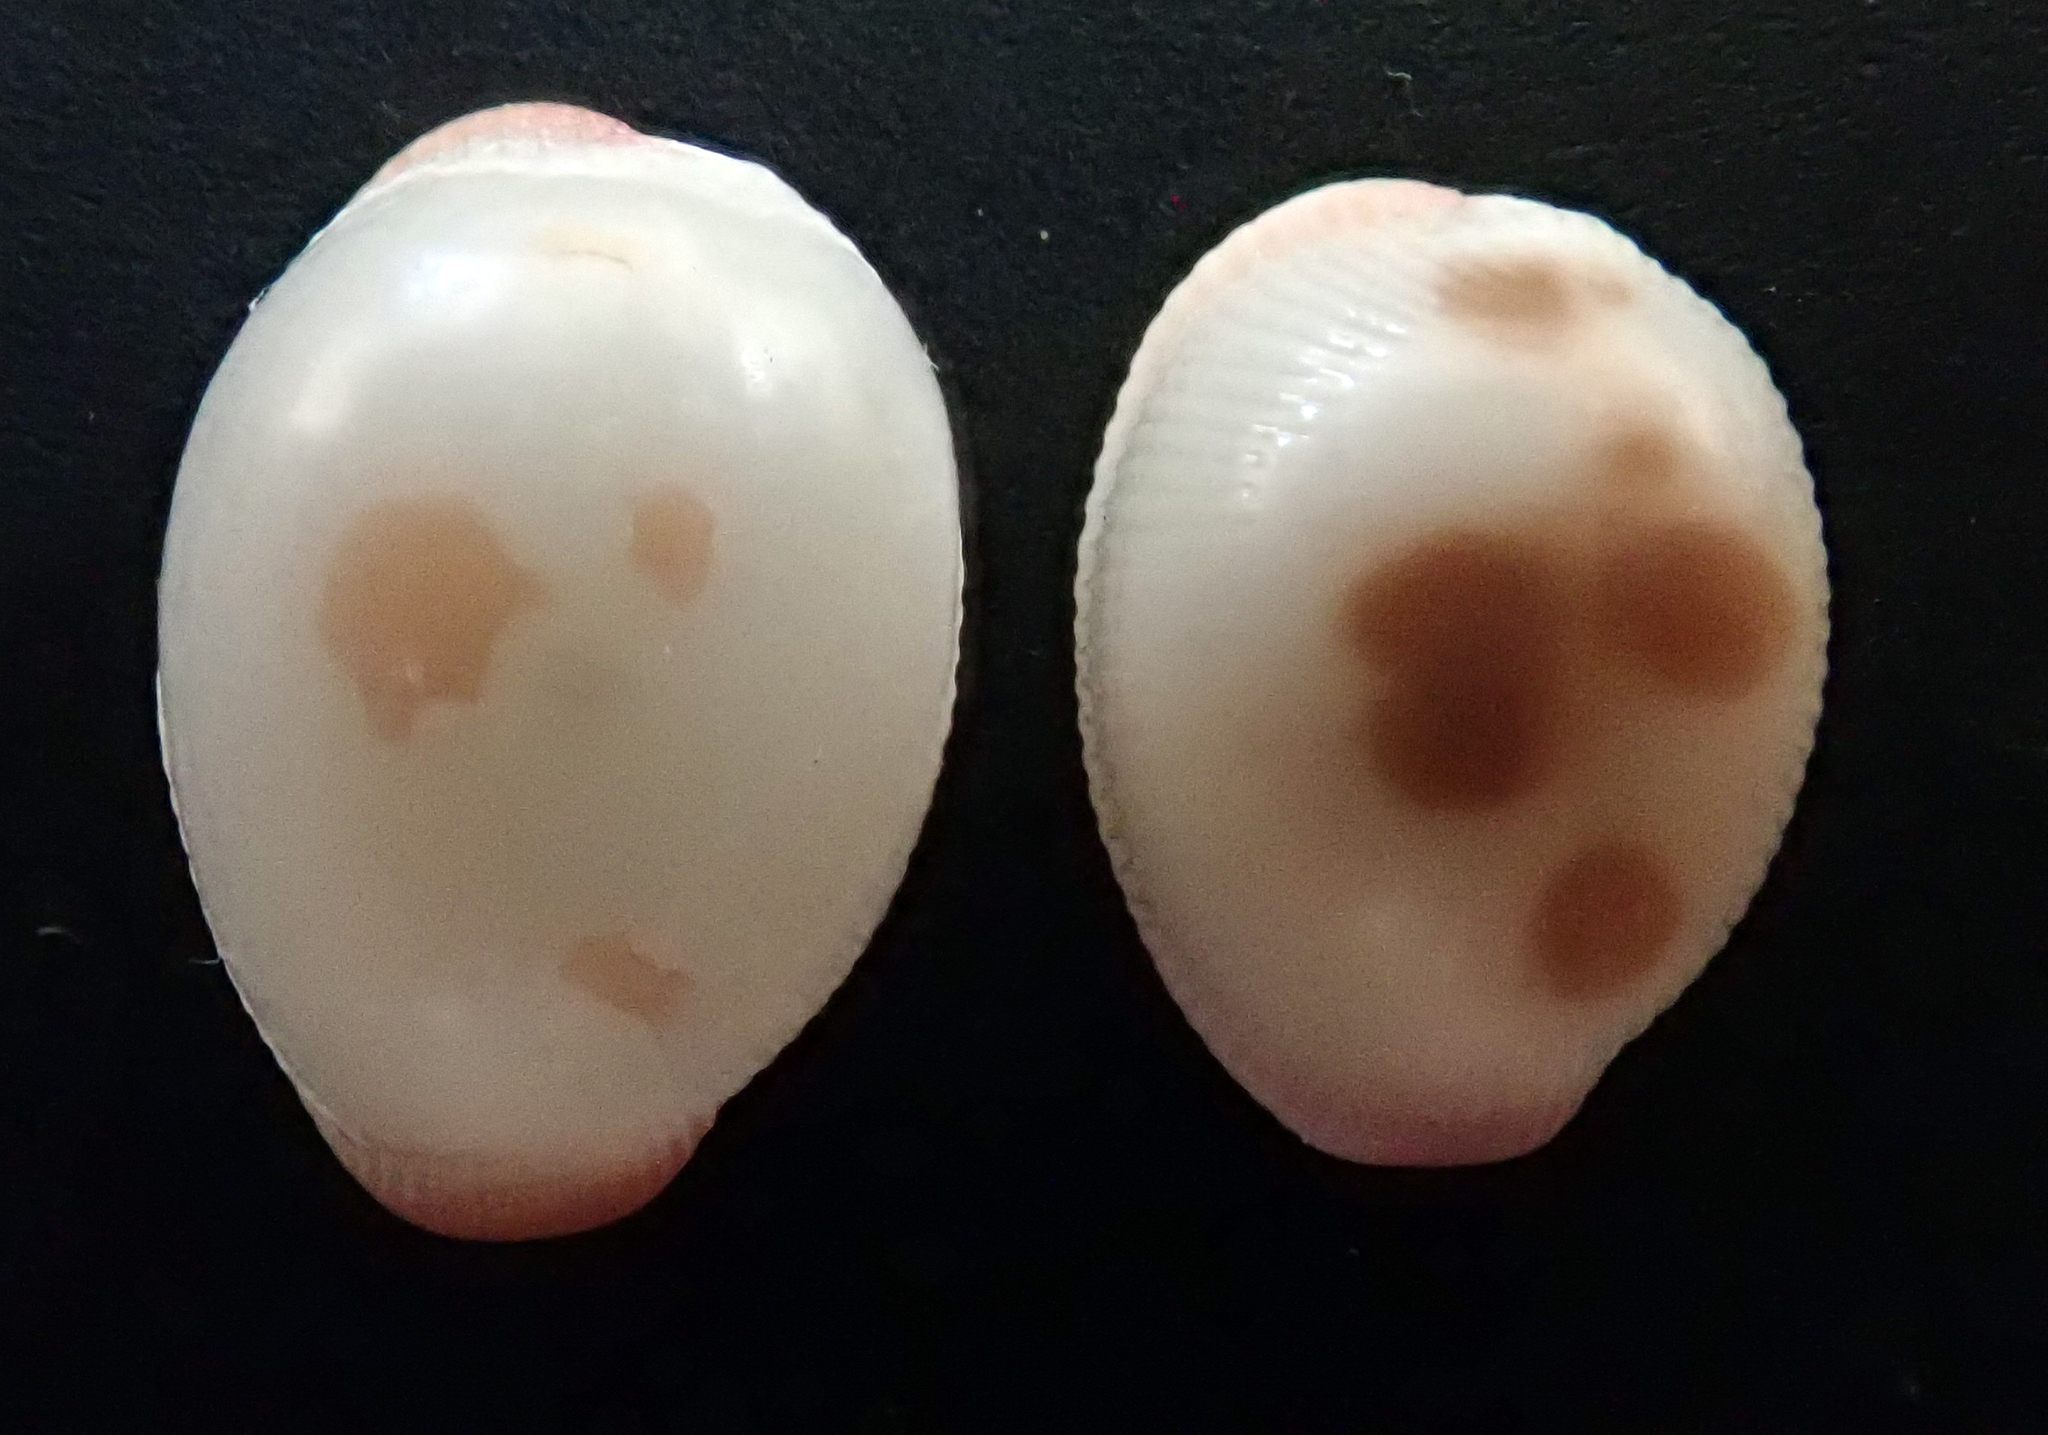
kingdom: Animalia
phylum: Mollusca
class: Gastropoda
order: Littorinimorpha
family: Triviidae
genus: Ellatrivia
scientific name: Ellatrivia merces
